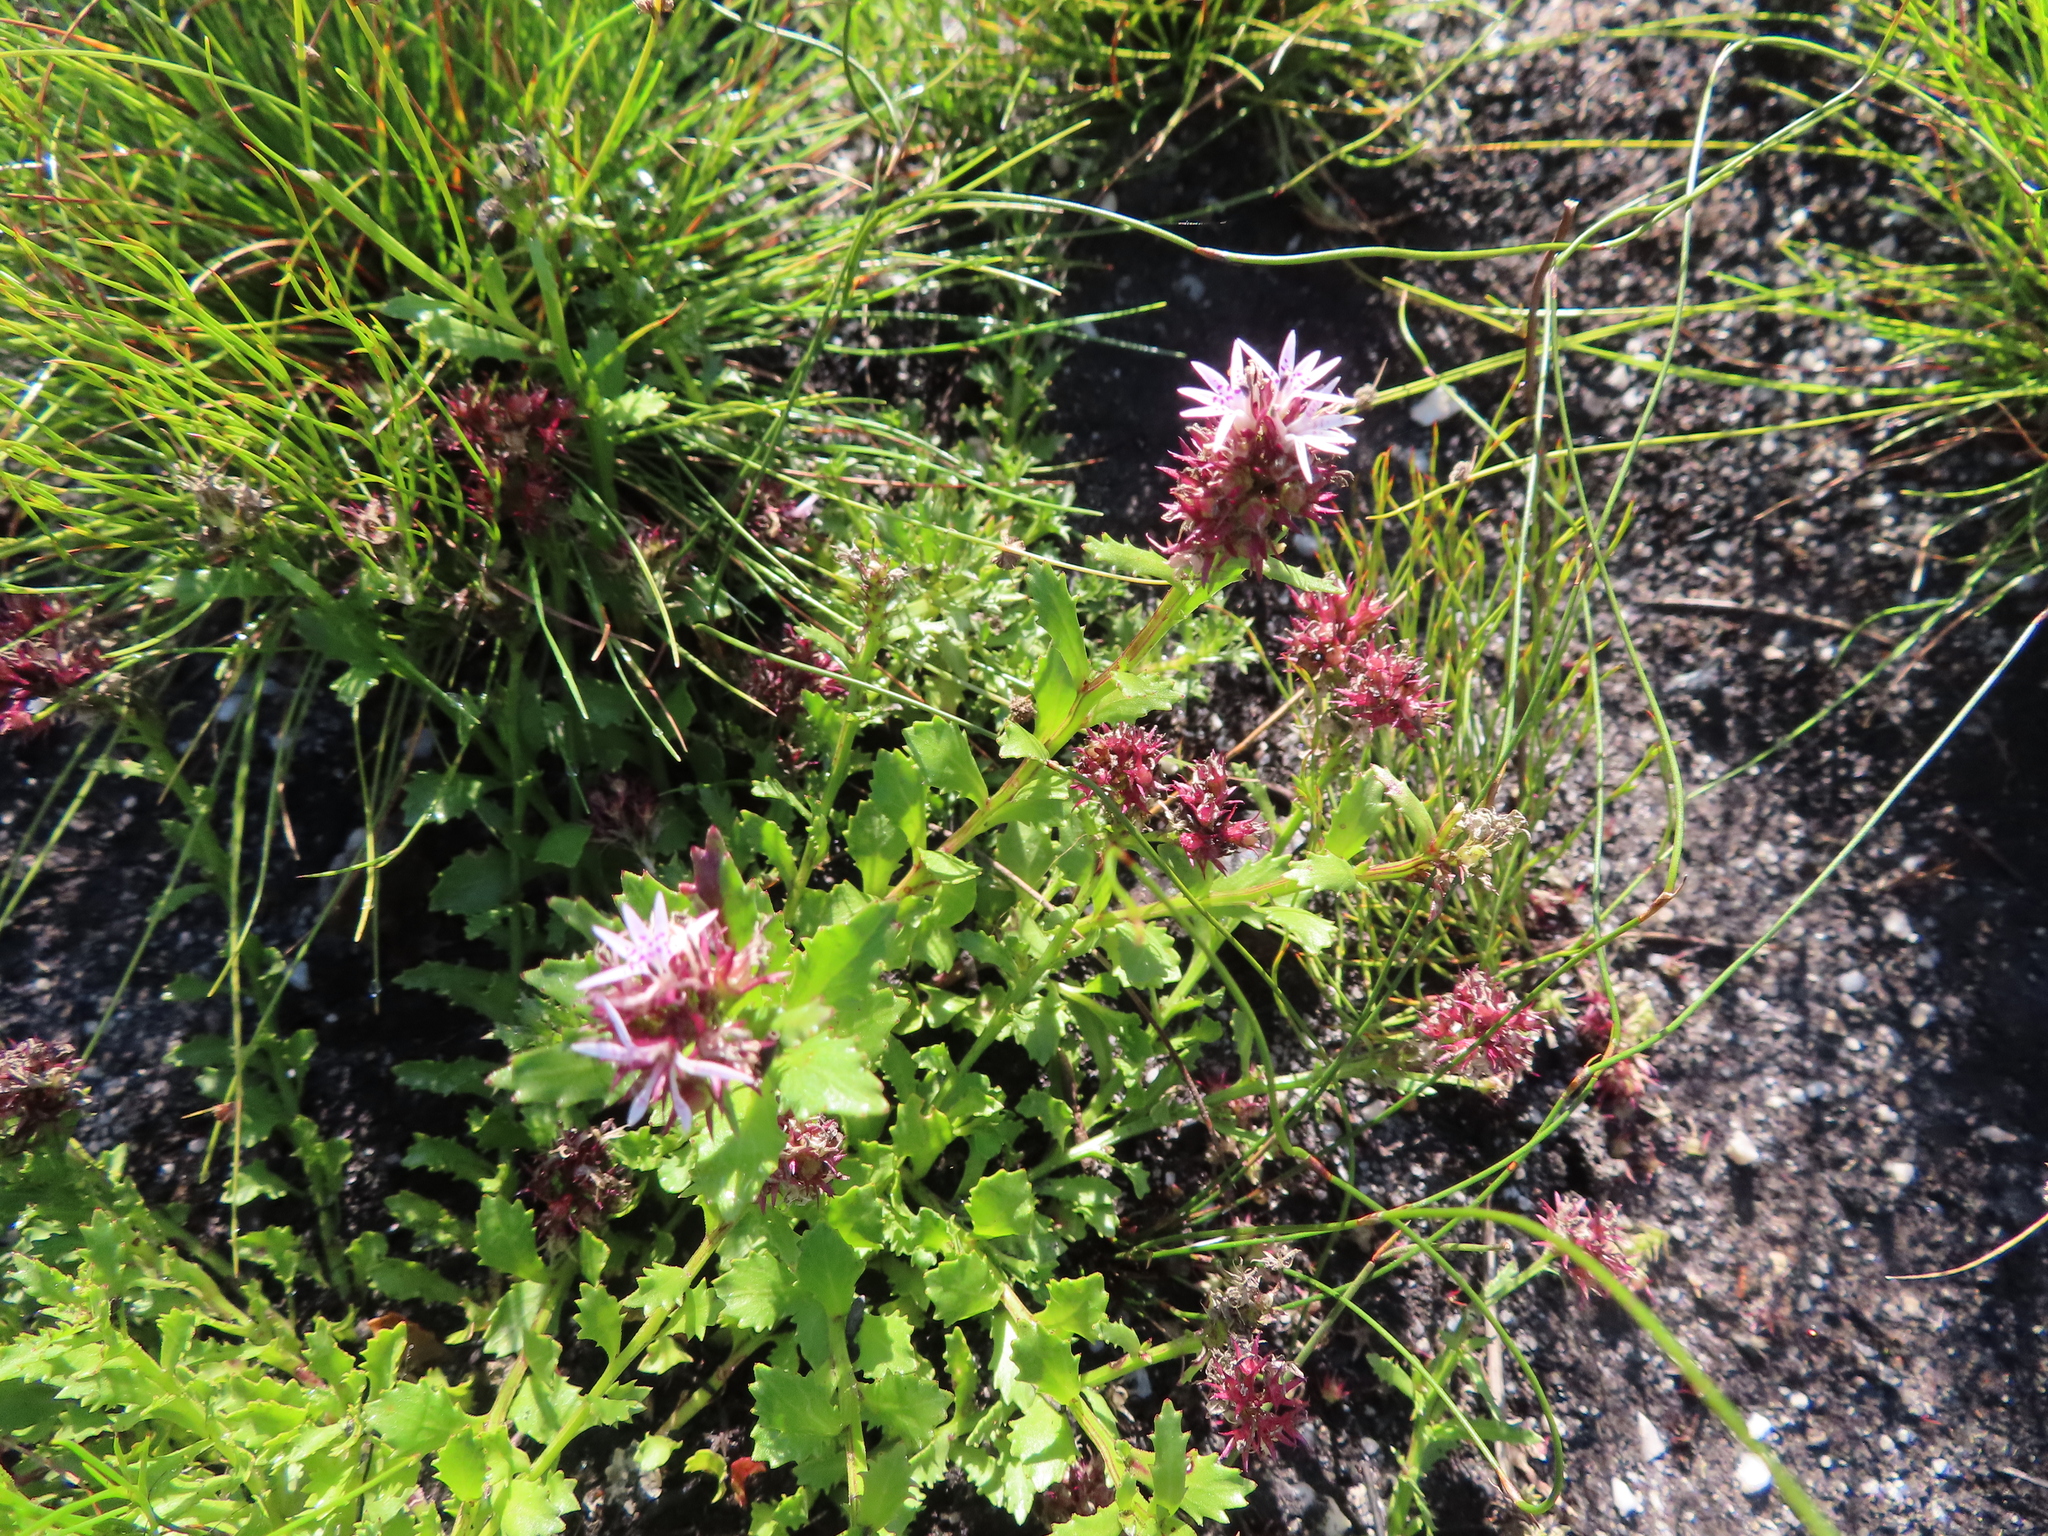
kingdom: Plantae
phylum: Tracheophyta
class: Magnoliopsida
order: Asterales
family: Campanulaceae
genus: Lobelia
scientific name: Lobelia jasionoides
